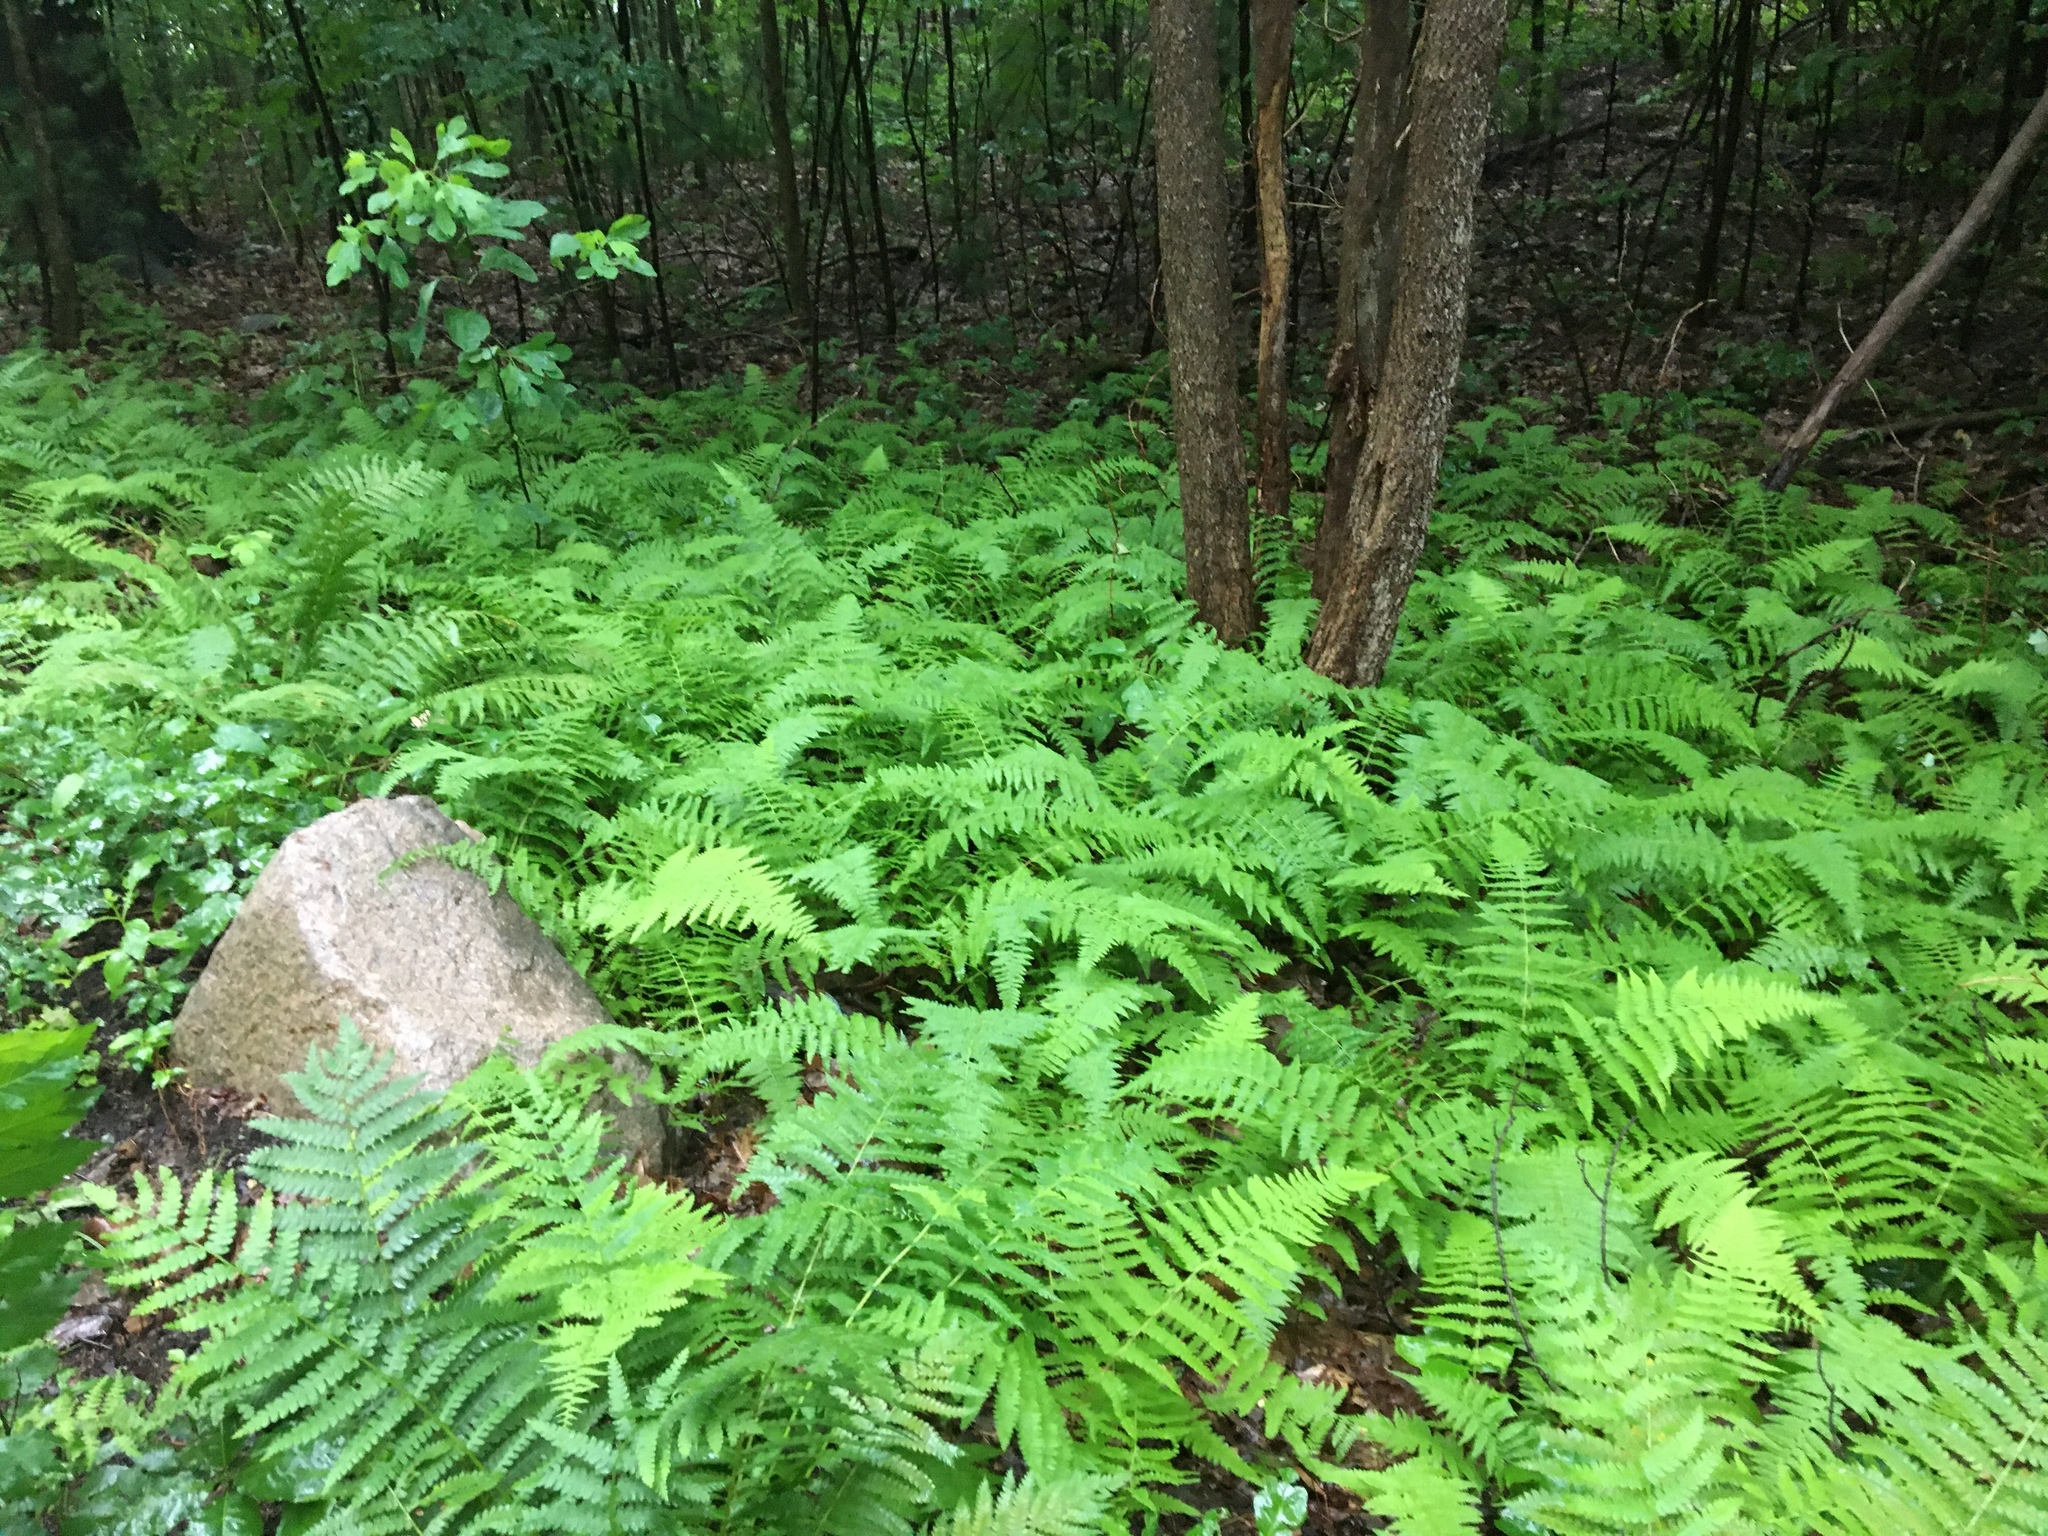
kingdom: Plantae
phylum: Tracheophyta
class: Polypodiopsida
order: Polypodiales
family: Dennstaedtiaceae
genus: Sitobolium
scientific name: Sitobolium punctilobum
